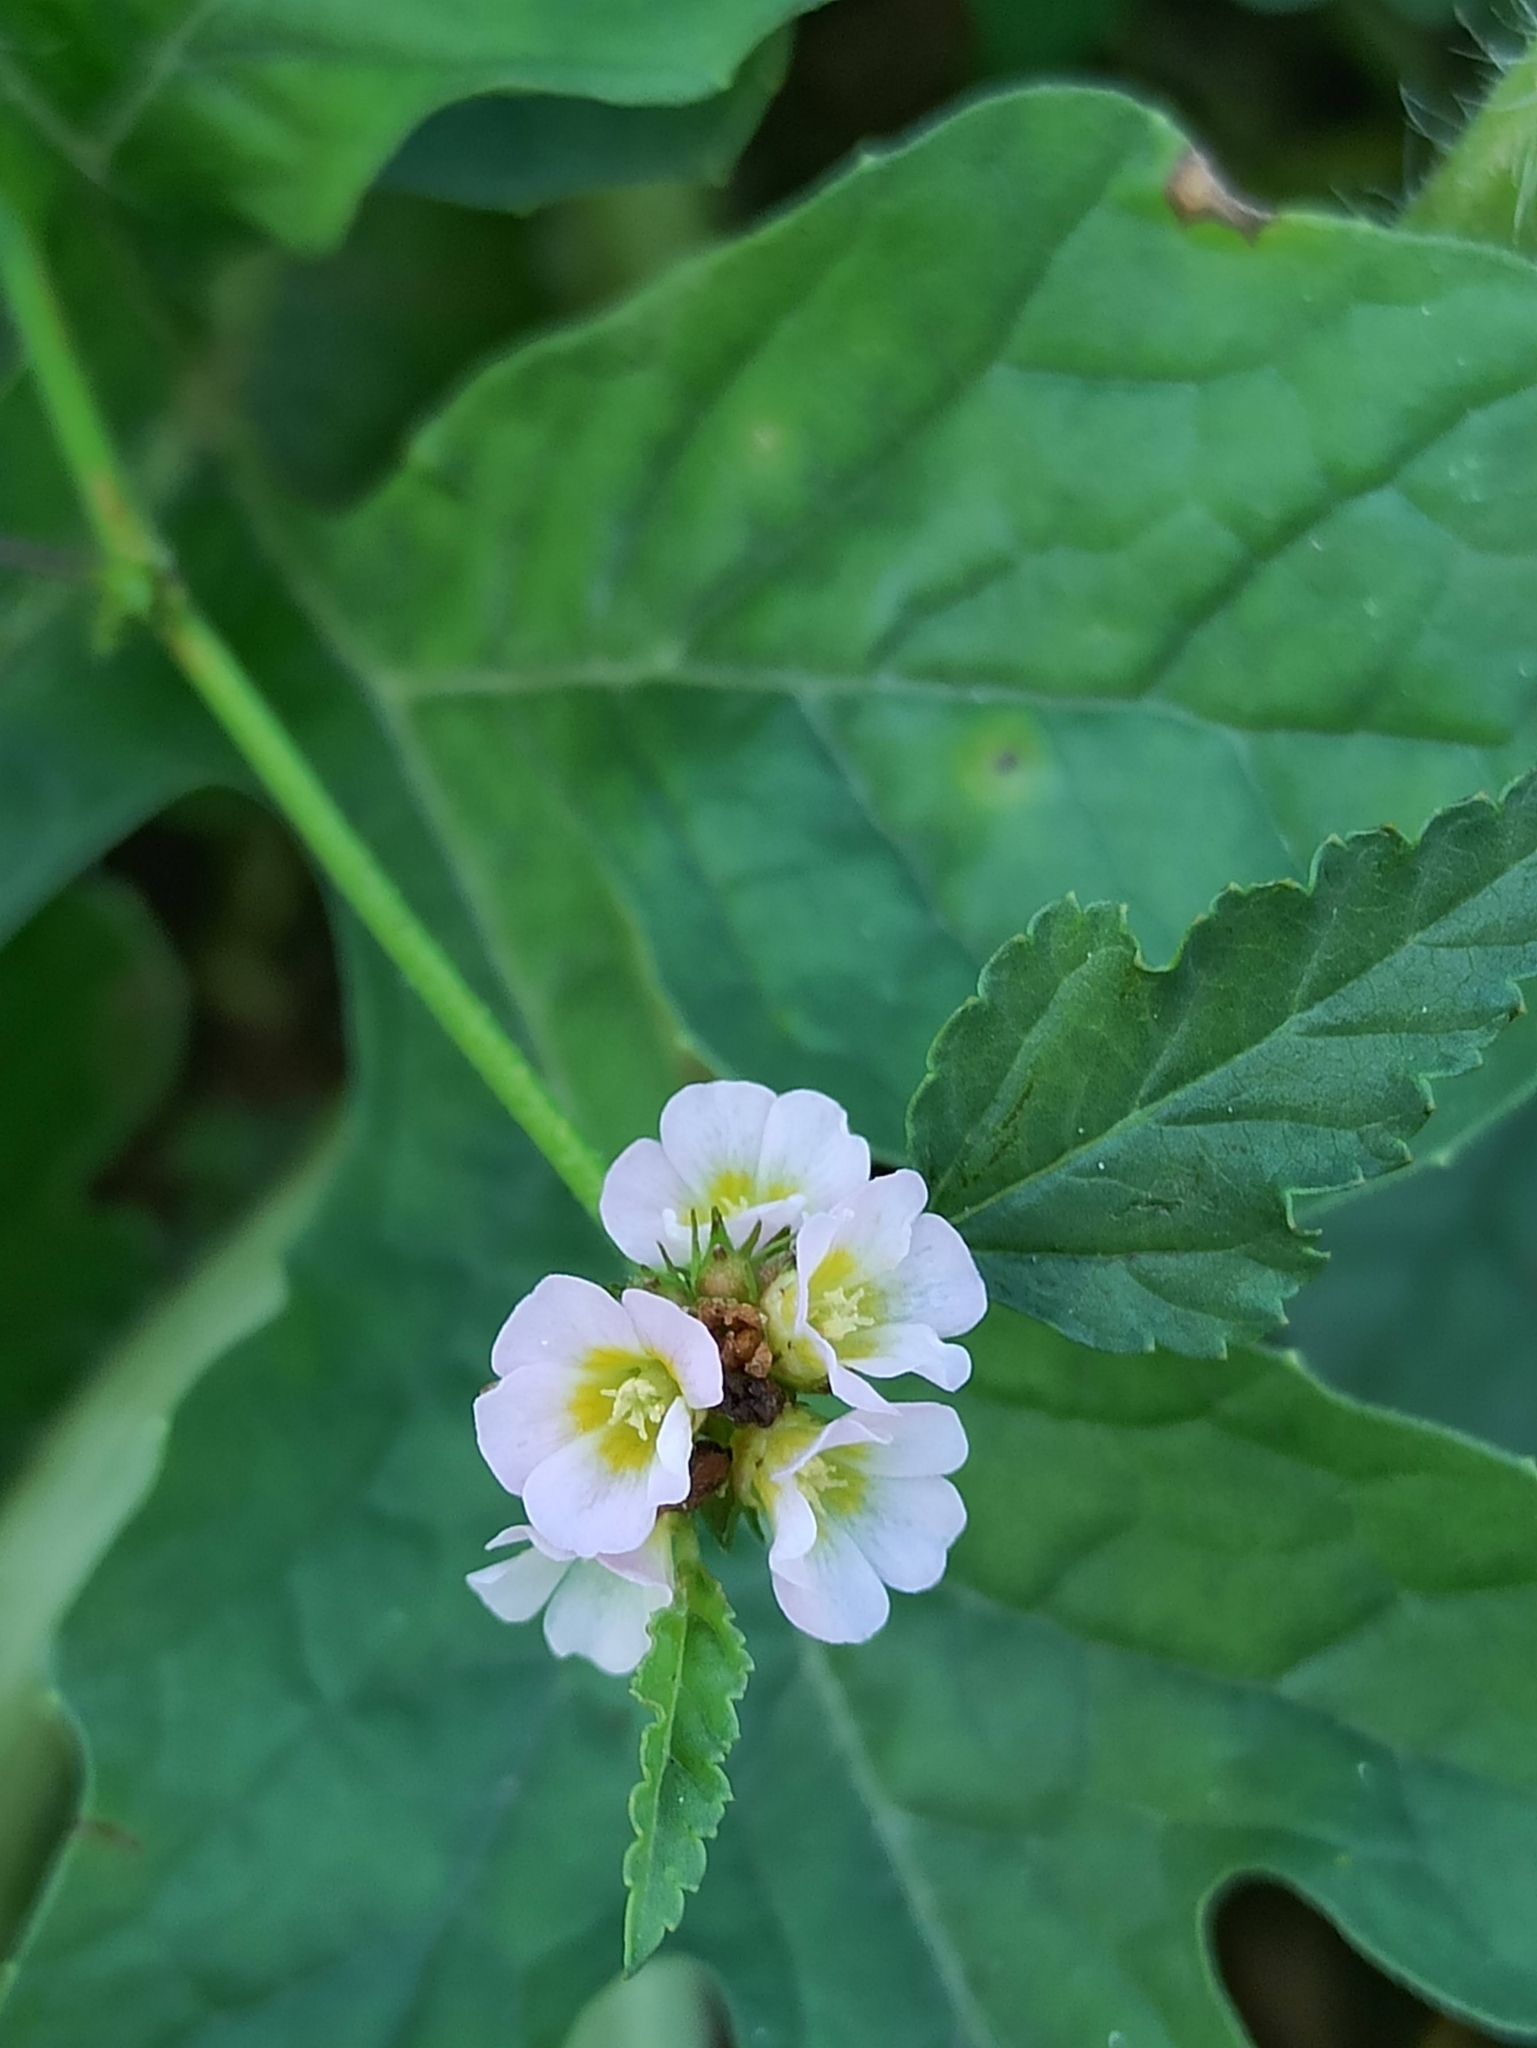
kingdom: Plantae
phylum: Tracheophyta
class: Magnoliopsida
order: Malvales
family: Malvaceae
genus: Melochia
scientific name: Melochia corchorifolia
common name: Chocolateweed
